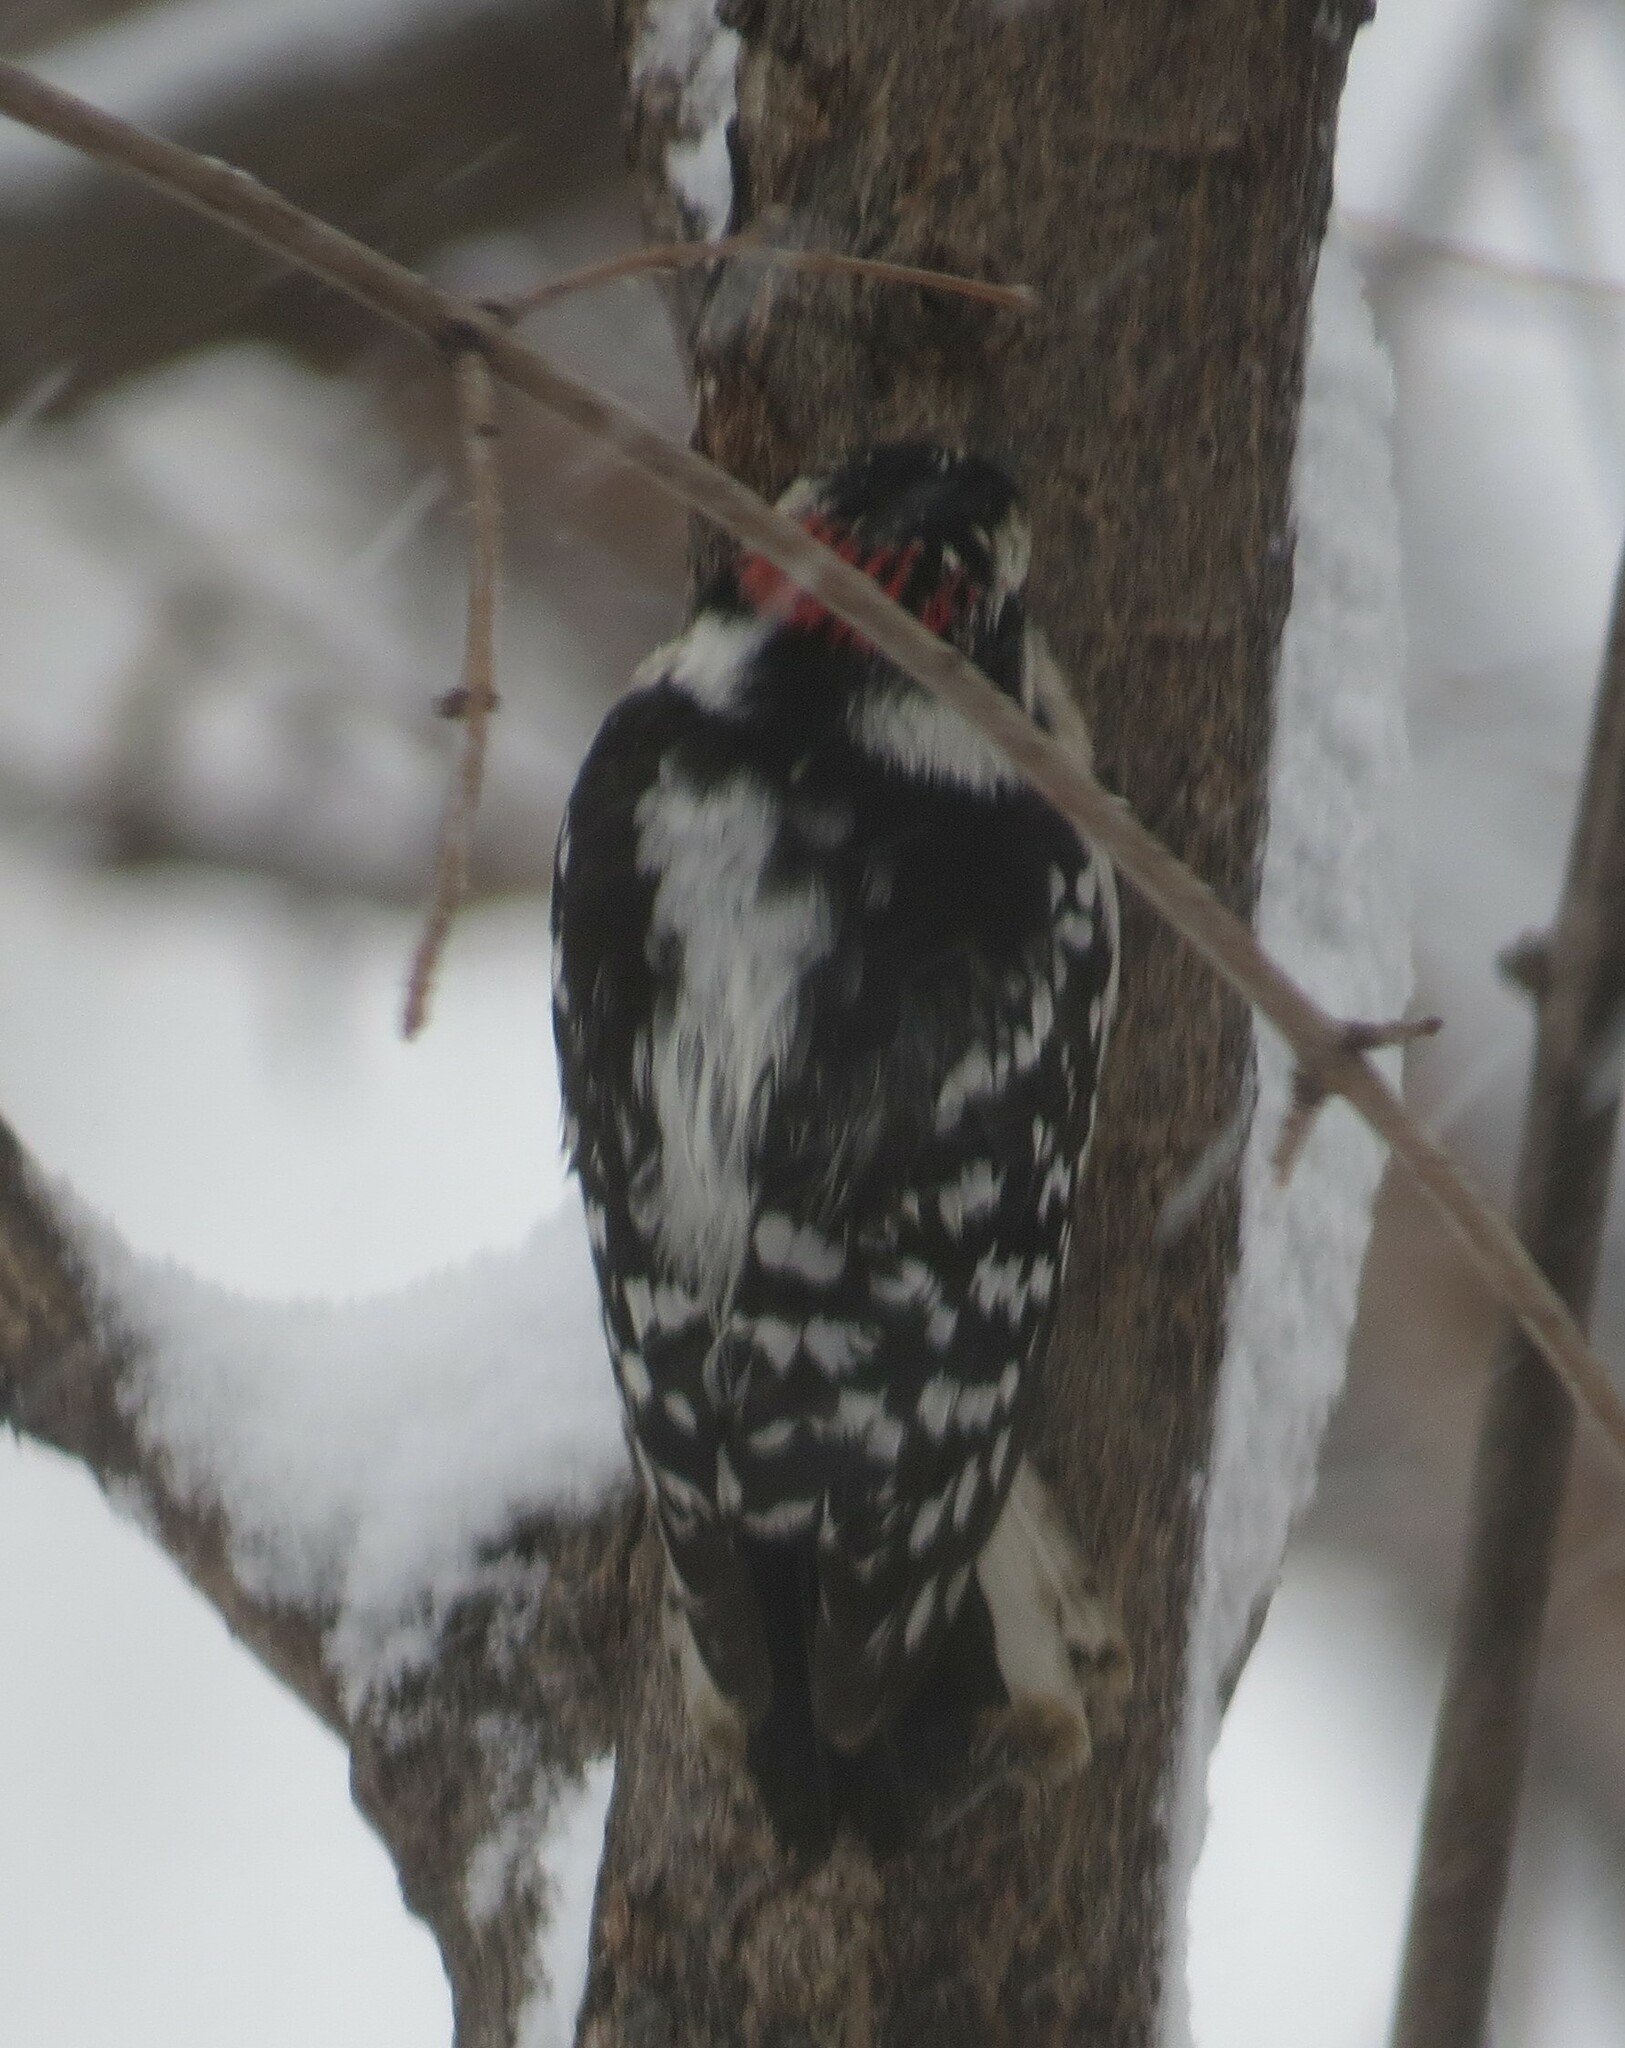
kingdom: Animalia
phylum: Chordata
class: Aves
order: Piciformes
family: Picidae
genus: Dryobates
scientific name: Dryobates pubescens
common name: Downy woodpecker
